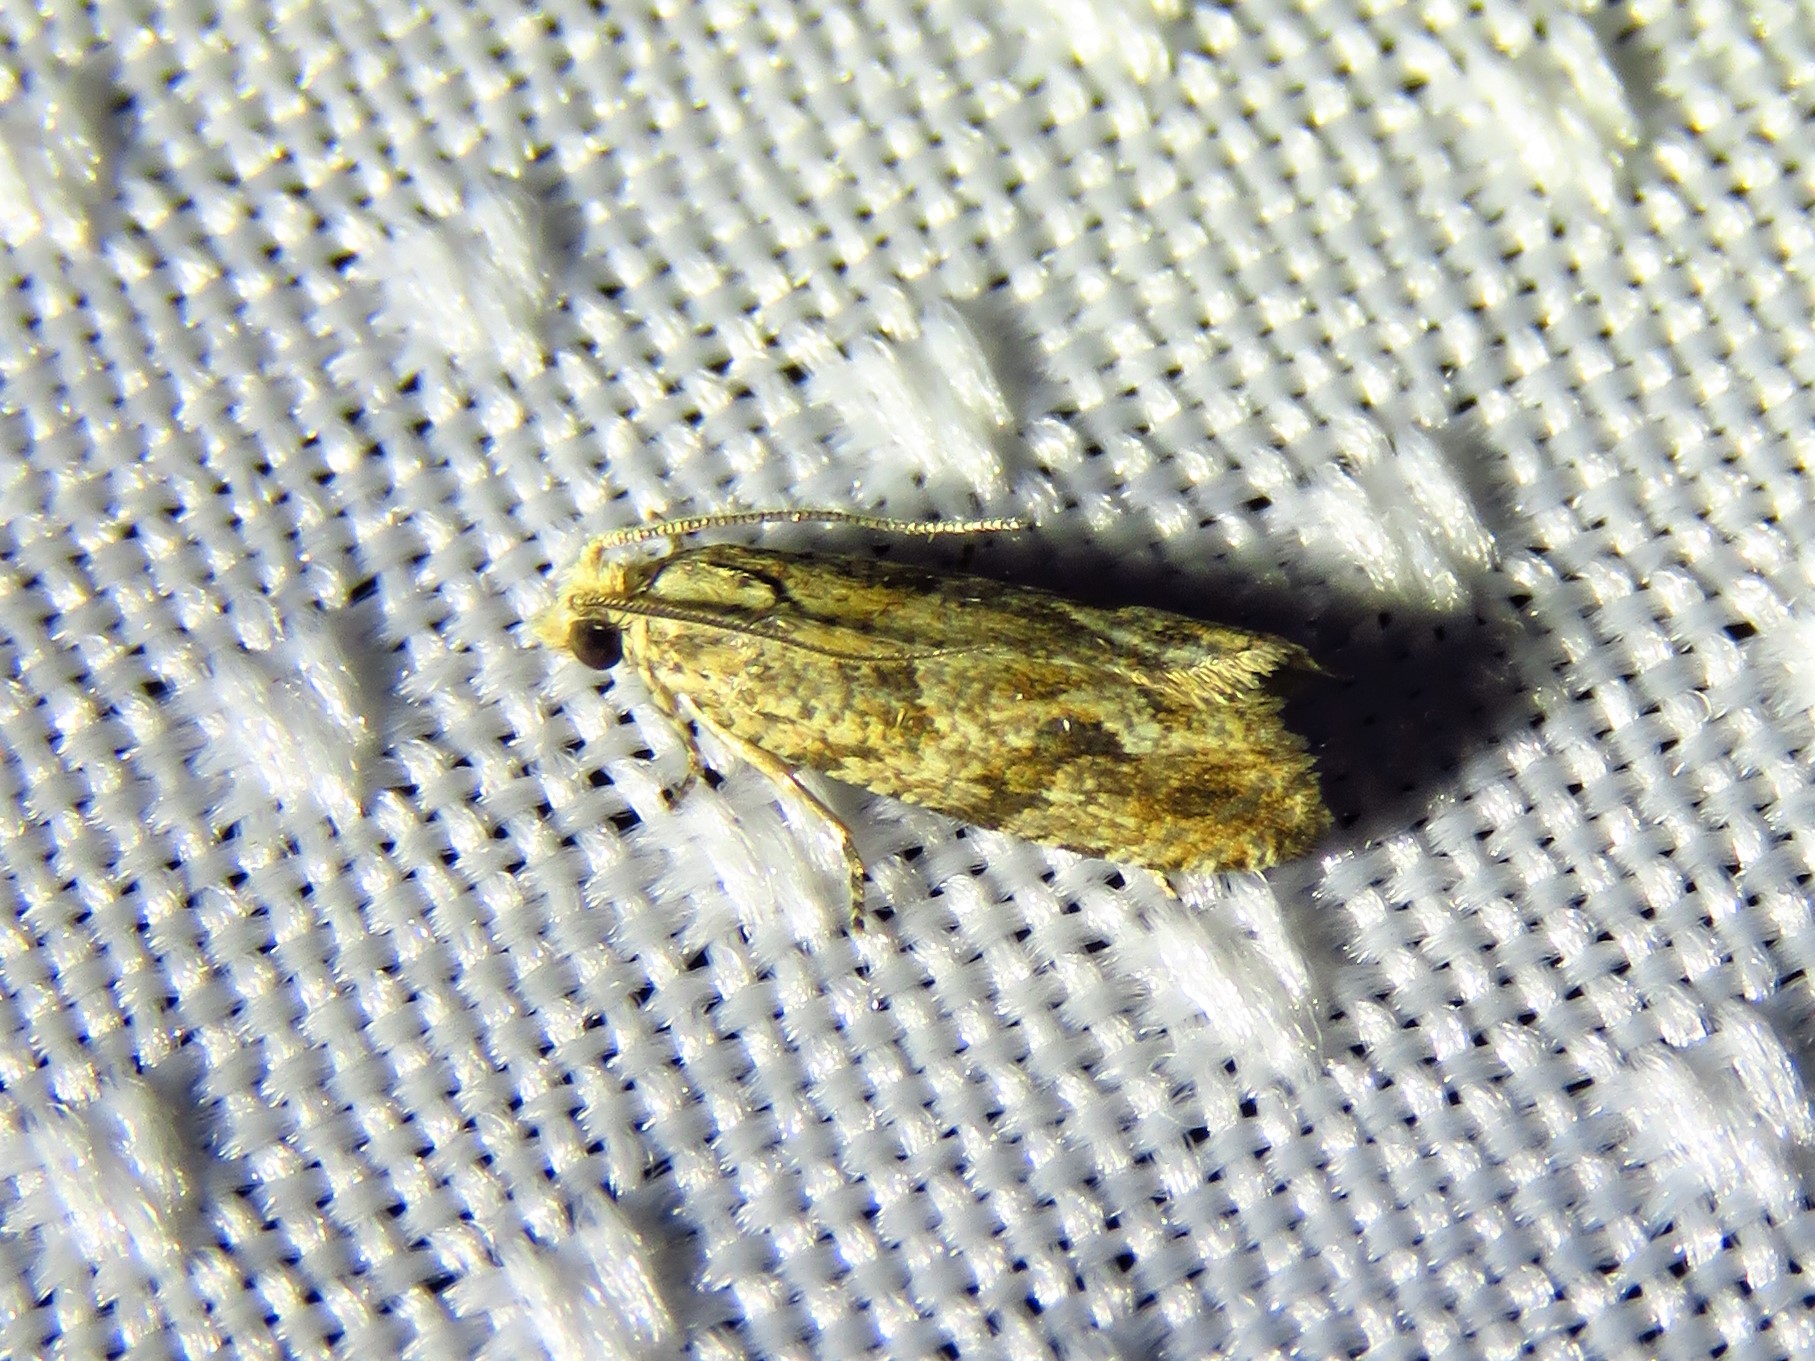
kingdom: Animalia
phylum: Arthropoda
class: Insecta
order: Lepidoptera
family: Tortricidae
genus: Bactra
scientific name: Bactra furfurana
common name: Mottled marble
